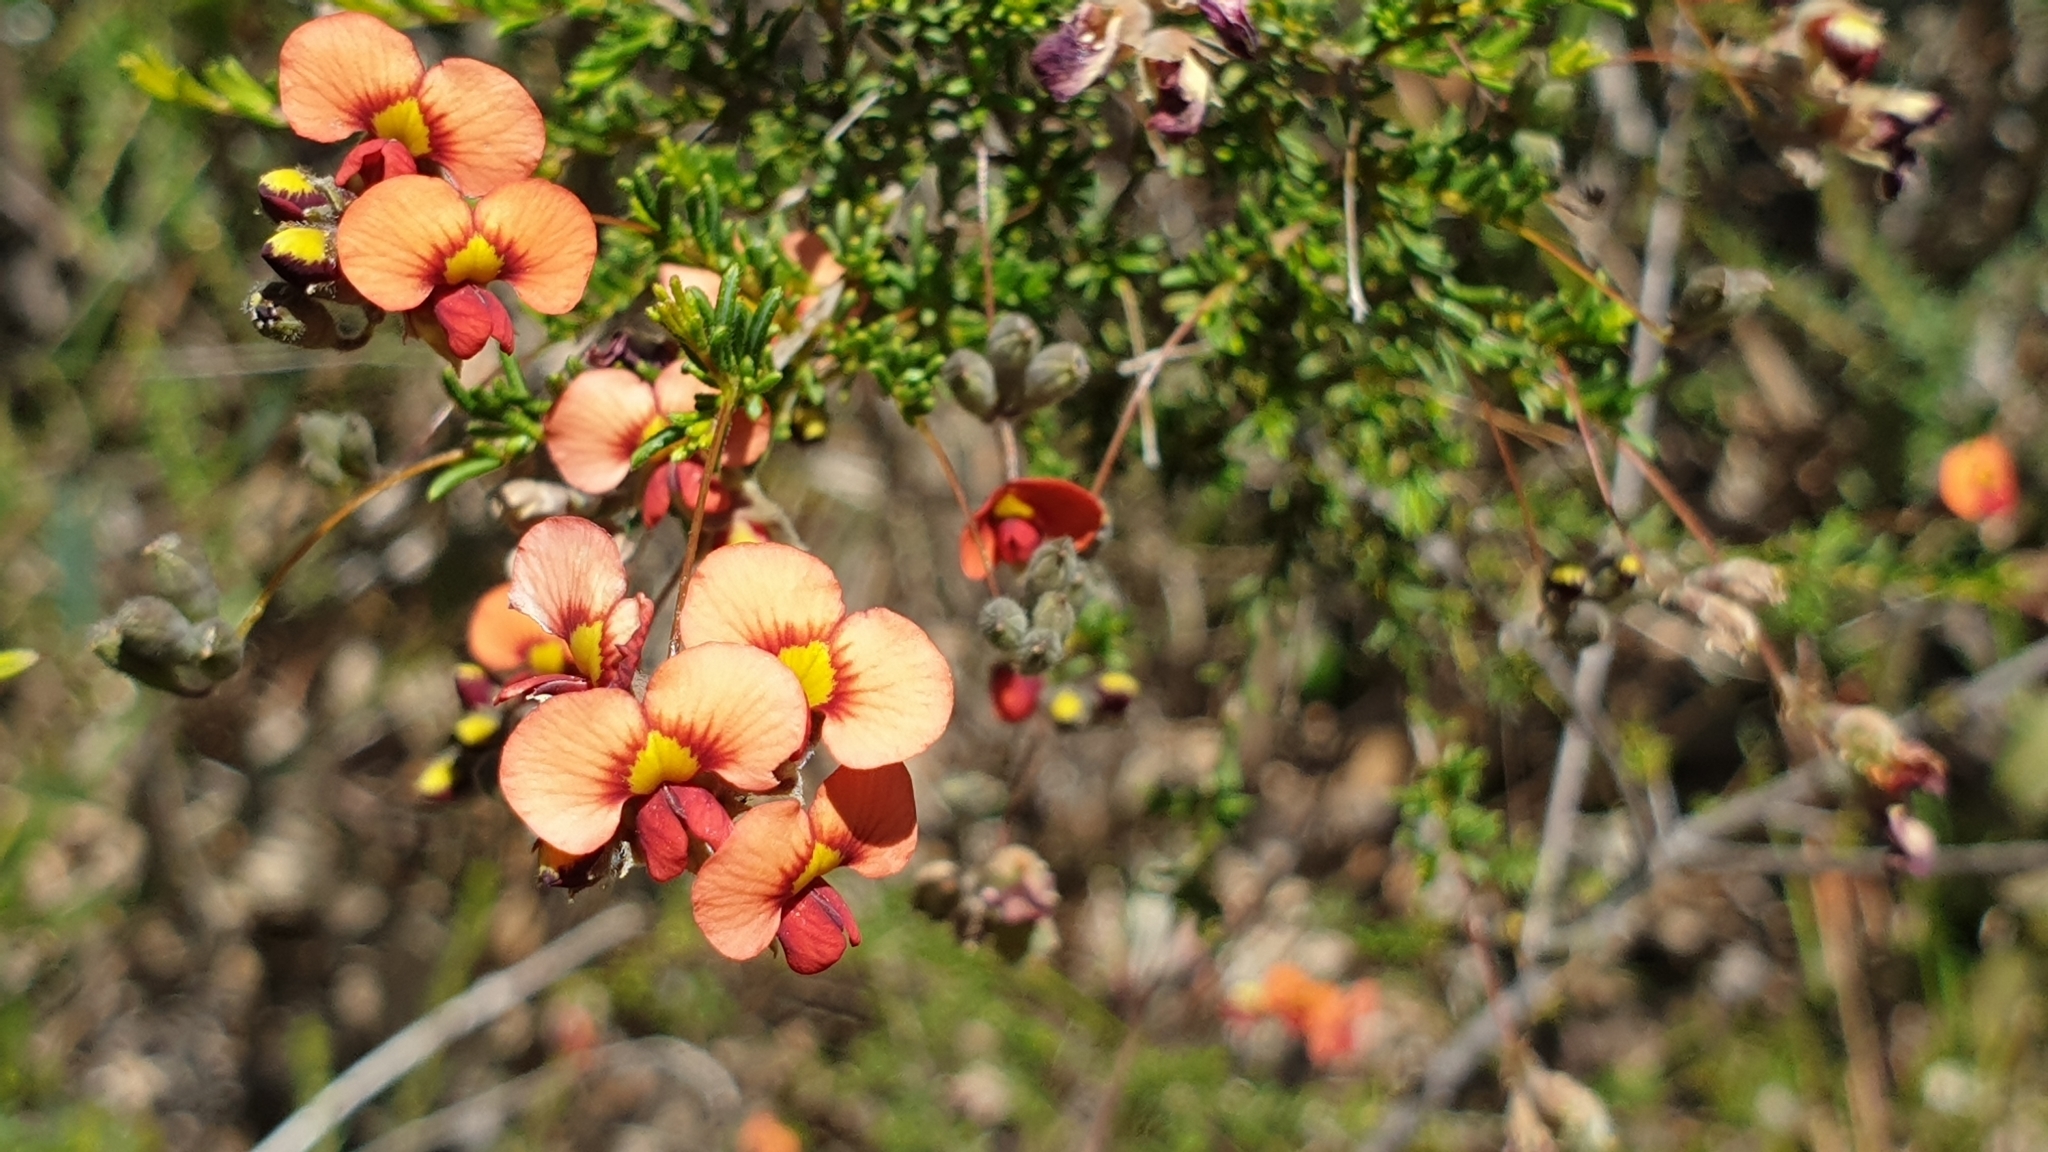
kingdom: Plantae
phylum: Tracheophyta
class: Magnoliopsida
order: Fabales
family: Fabaceae
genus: Dillwynia
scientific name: Dillwynia hispida
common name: Red parrot-pea
